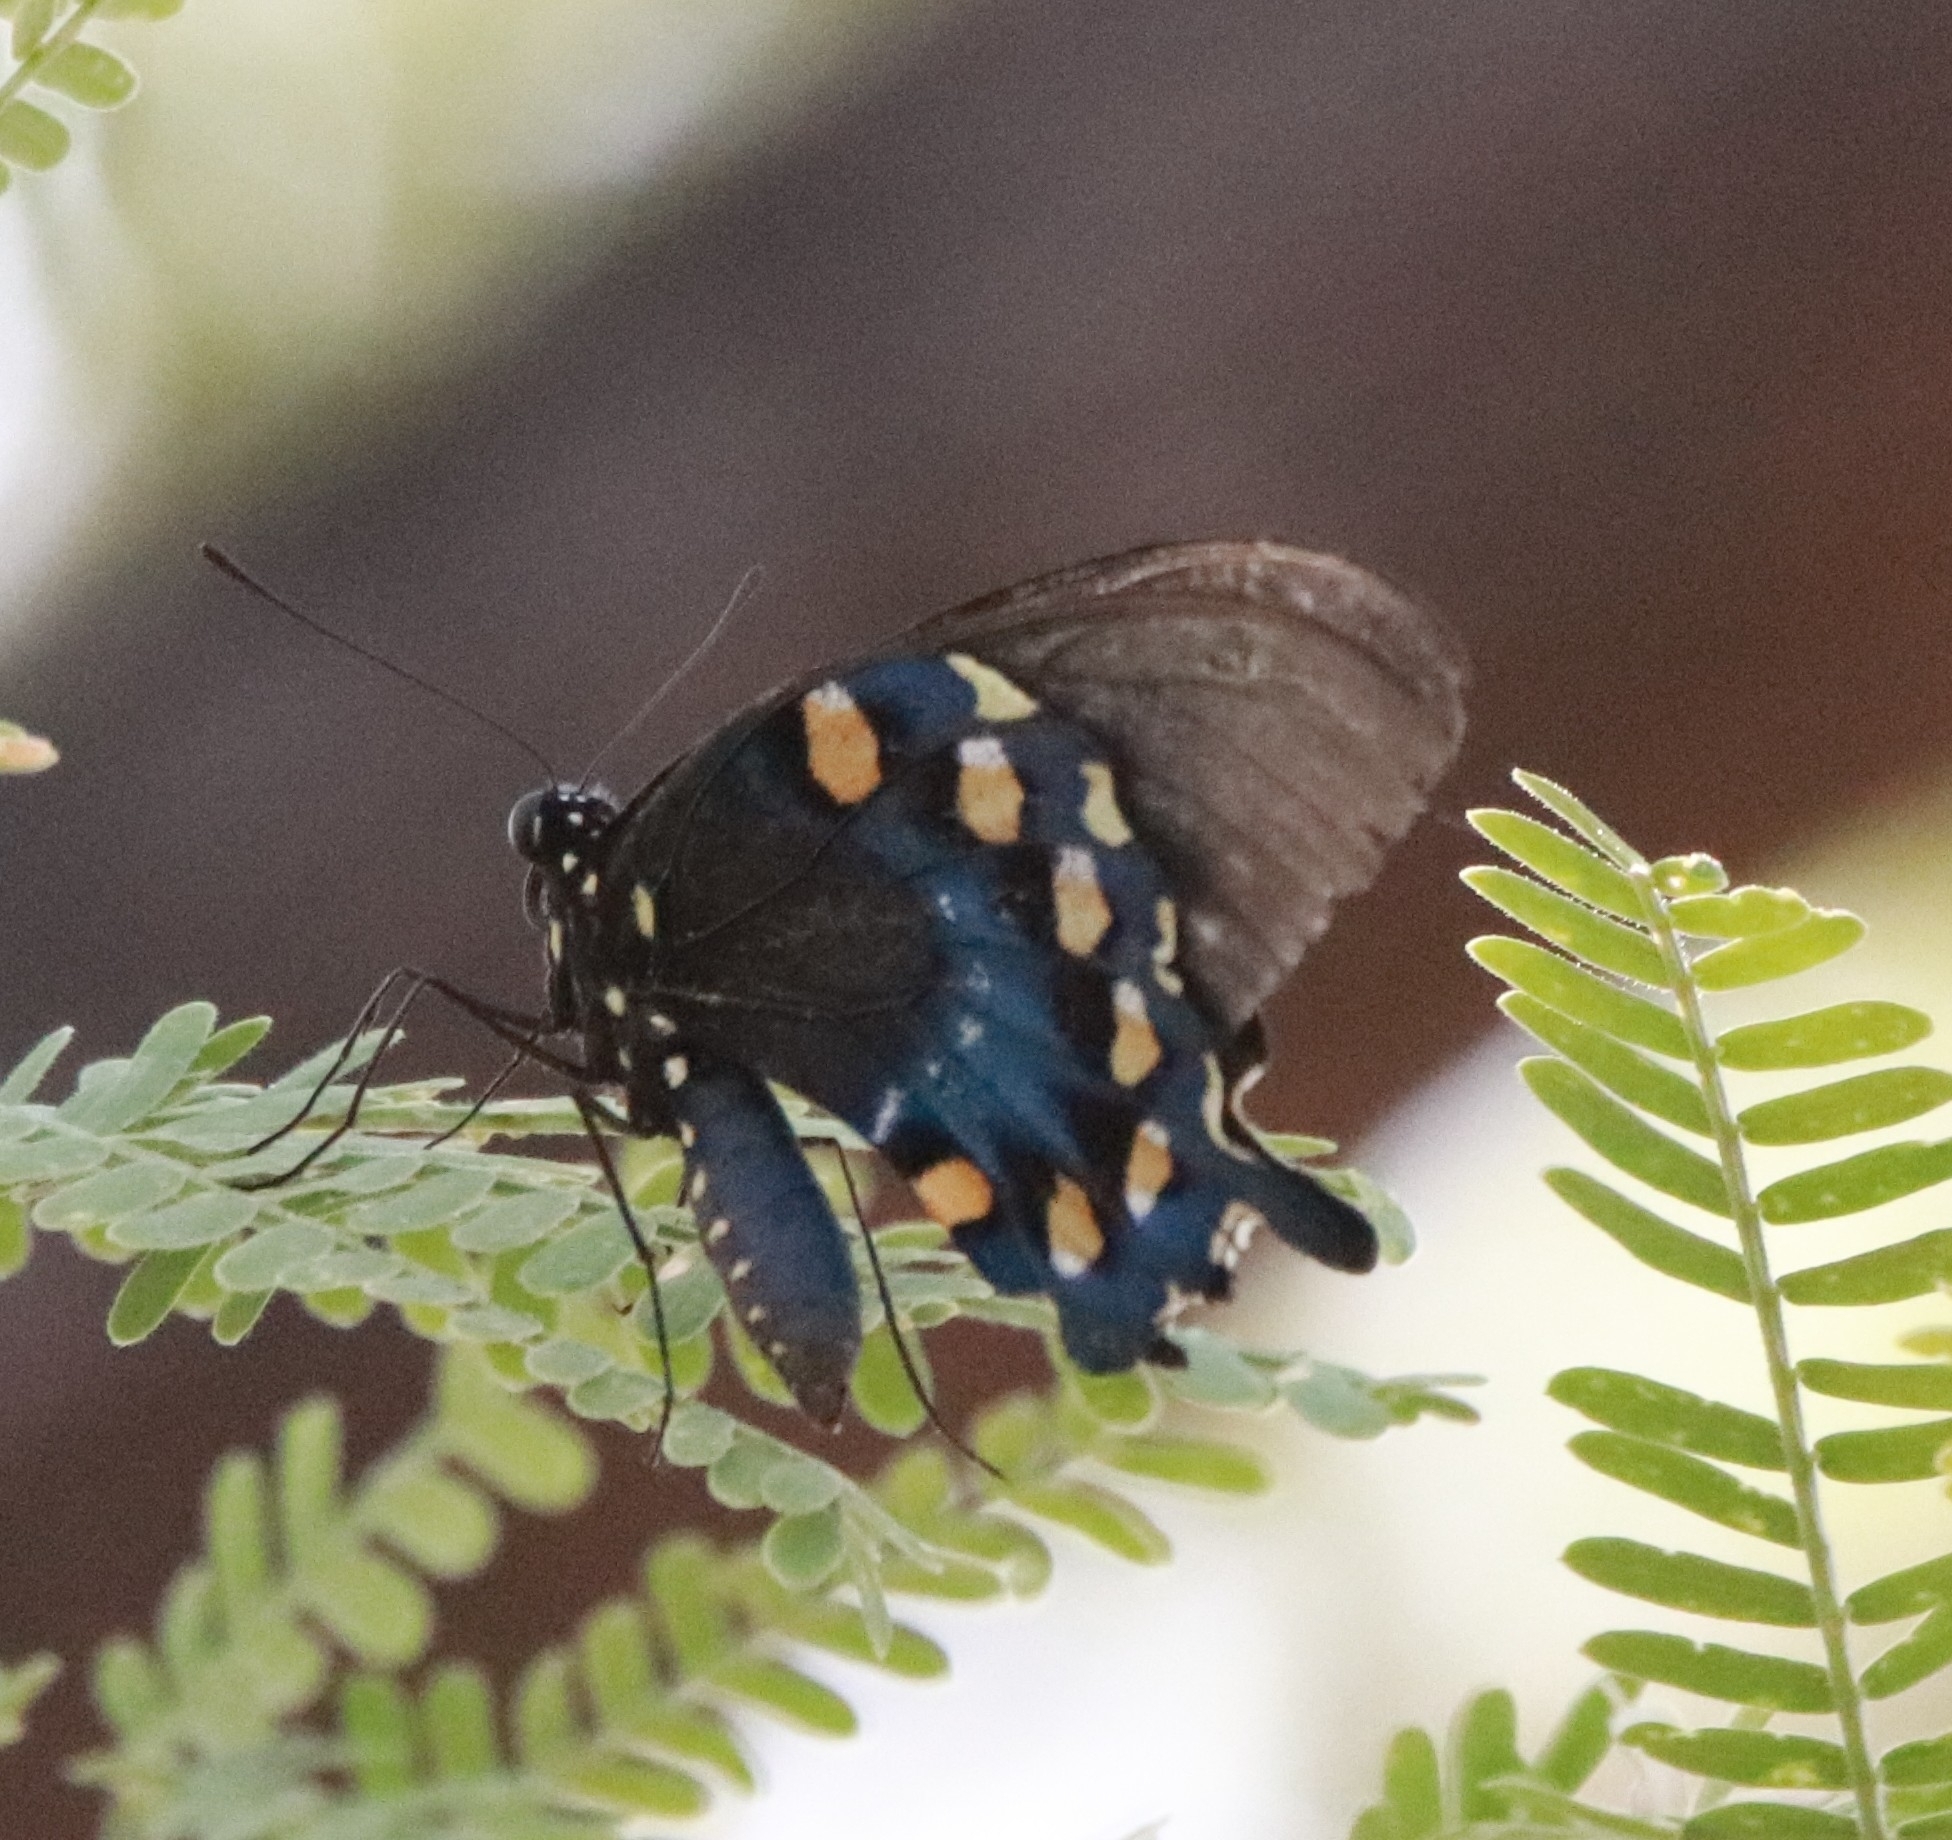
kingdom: Animalia
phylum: Arthropoda
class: Insecta
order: Lepidoptera
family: Papilionidae
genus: Battus
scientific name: Battus philenor
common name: Pipevine swallowtail
